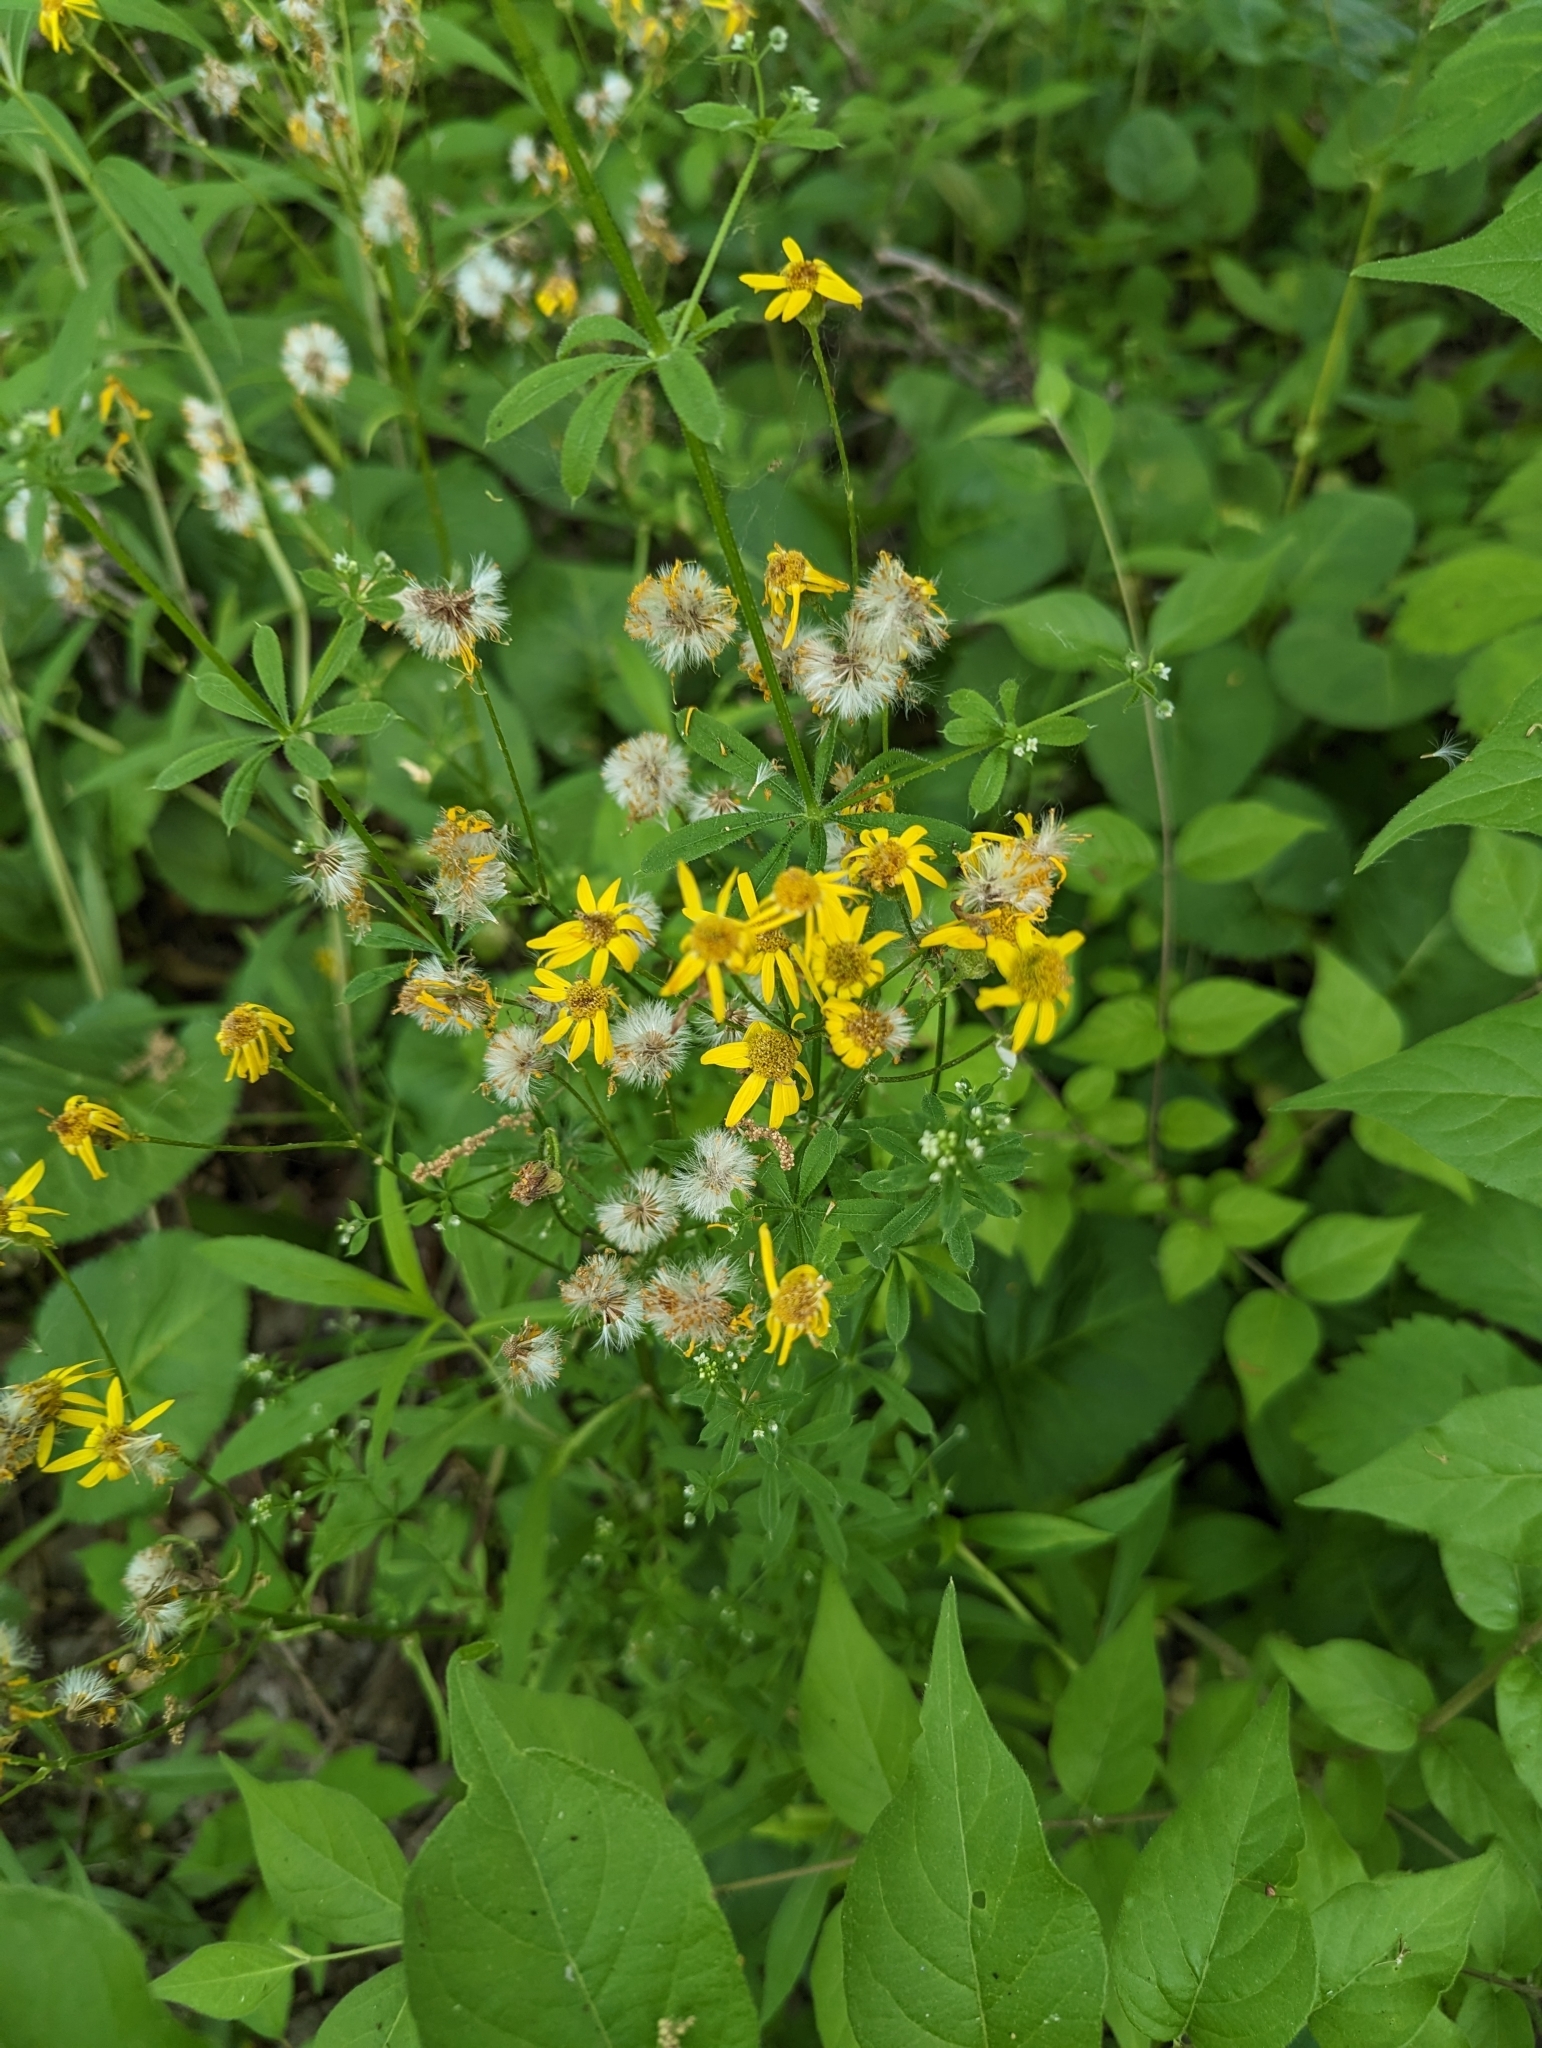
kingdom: Plantae
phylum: Tracheophyta
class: Magnoliopsida
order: Asterales
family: Asteraceae
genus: Packera
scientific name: Packera aurea
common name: Golden groundsel
